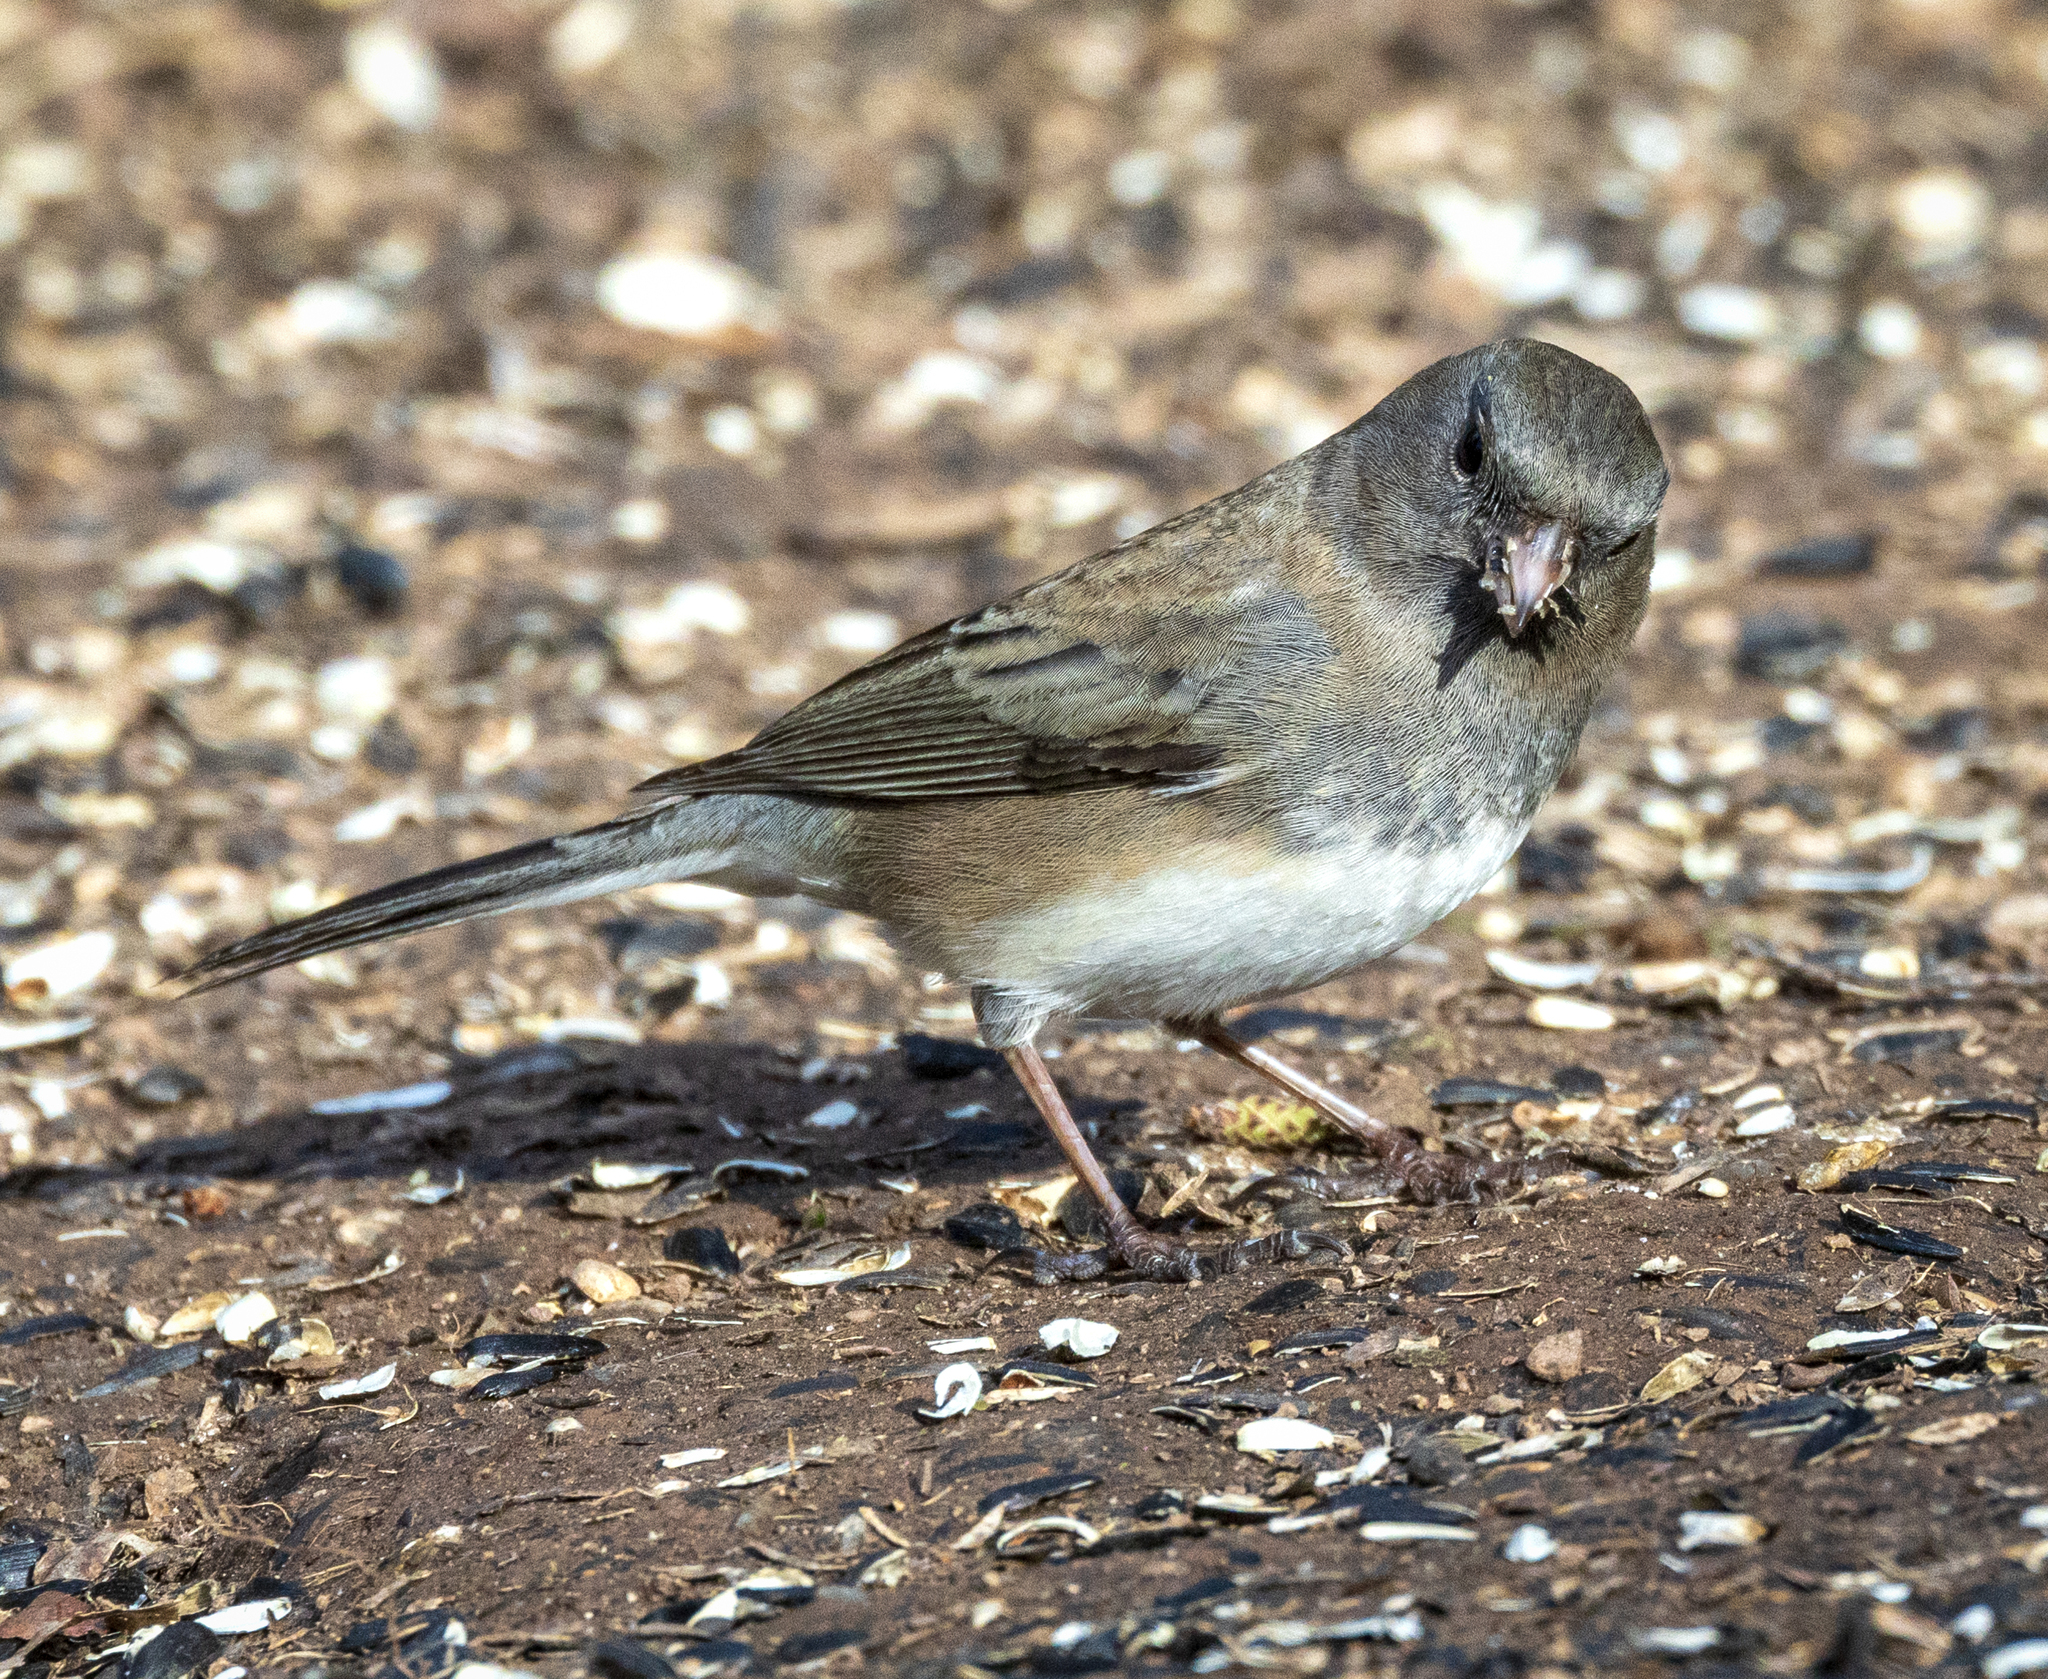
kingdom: Animalia
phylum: Chordata
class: Aves
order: Passeriformes
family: Passerellidae
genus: Junco
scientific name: Junco hyemalis
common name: Dark-eyed junco
